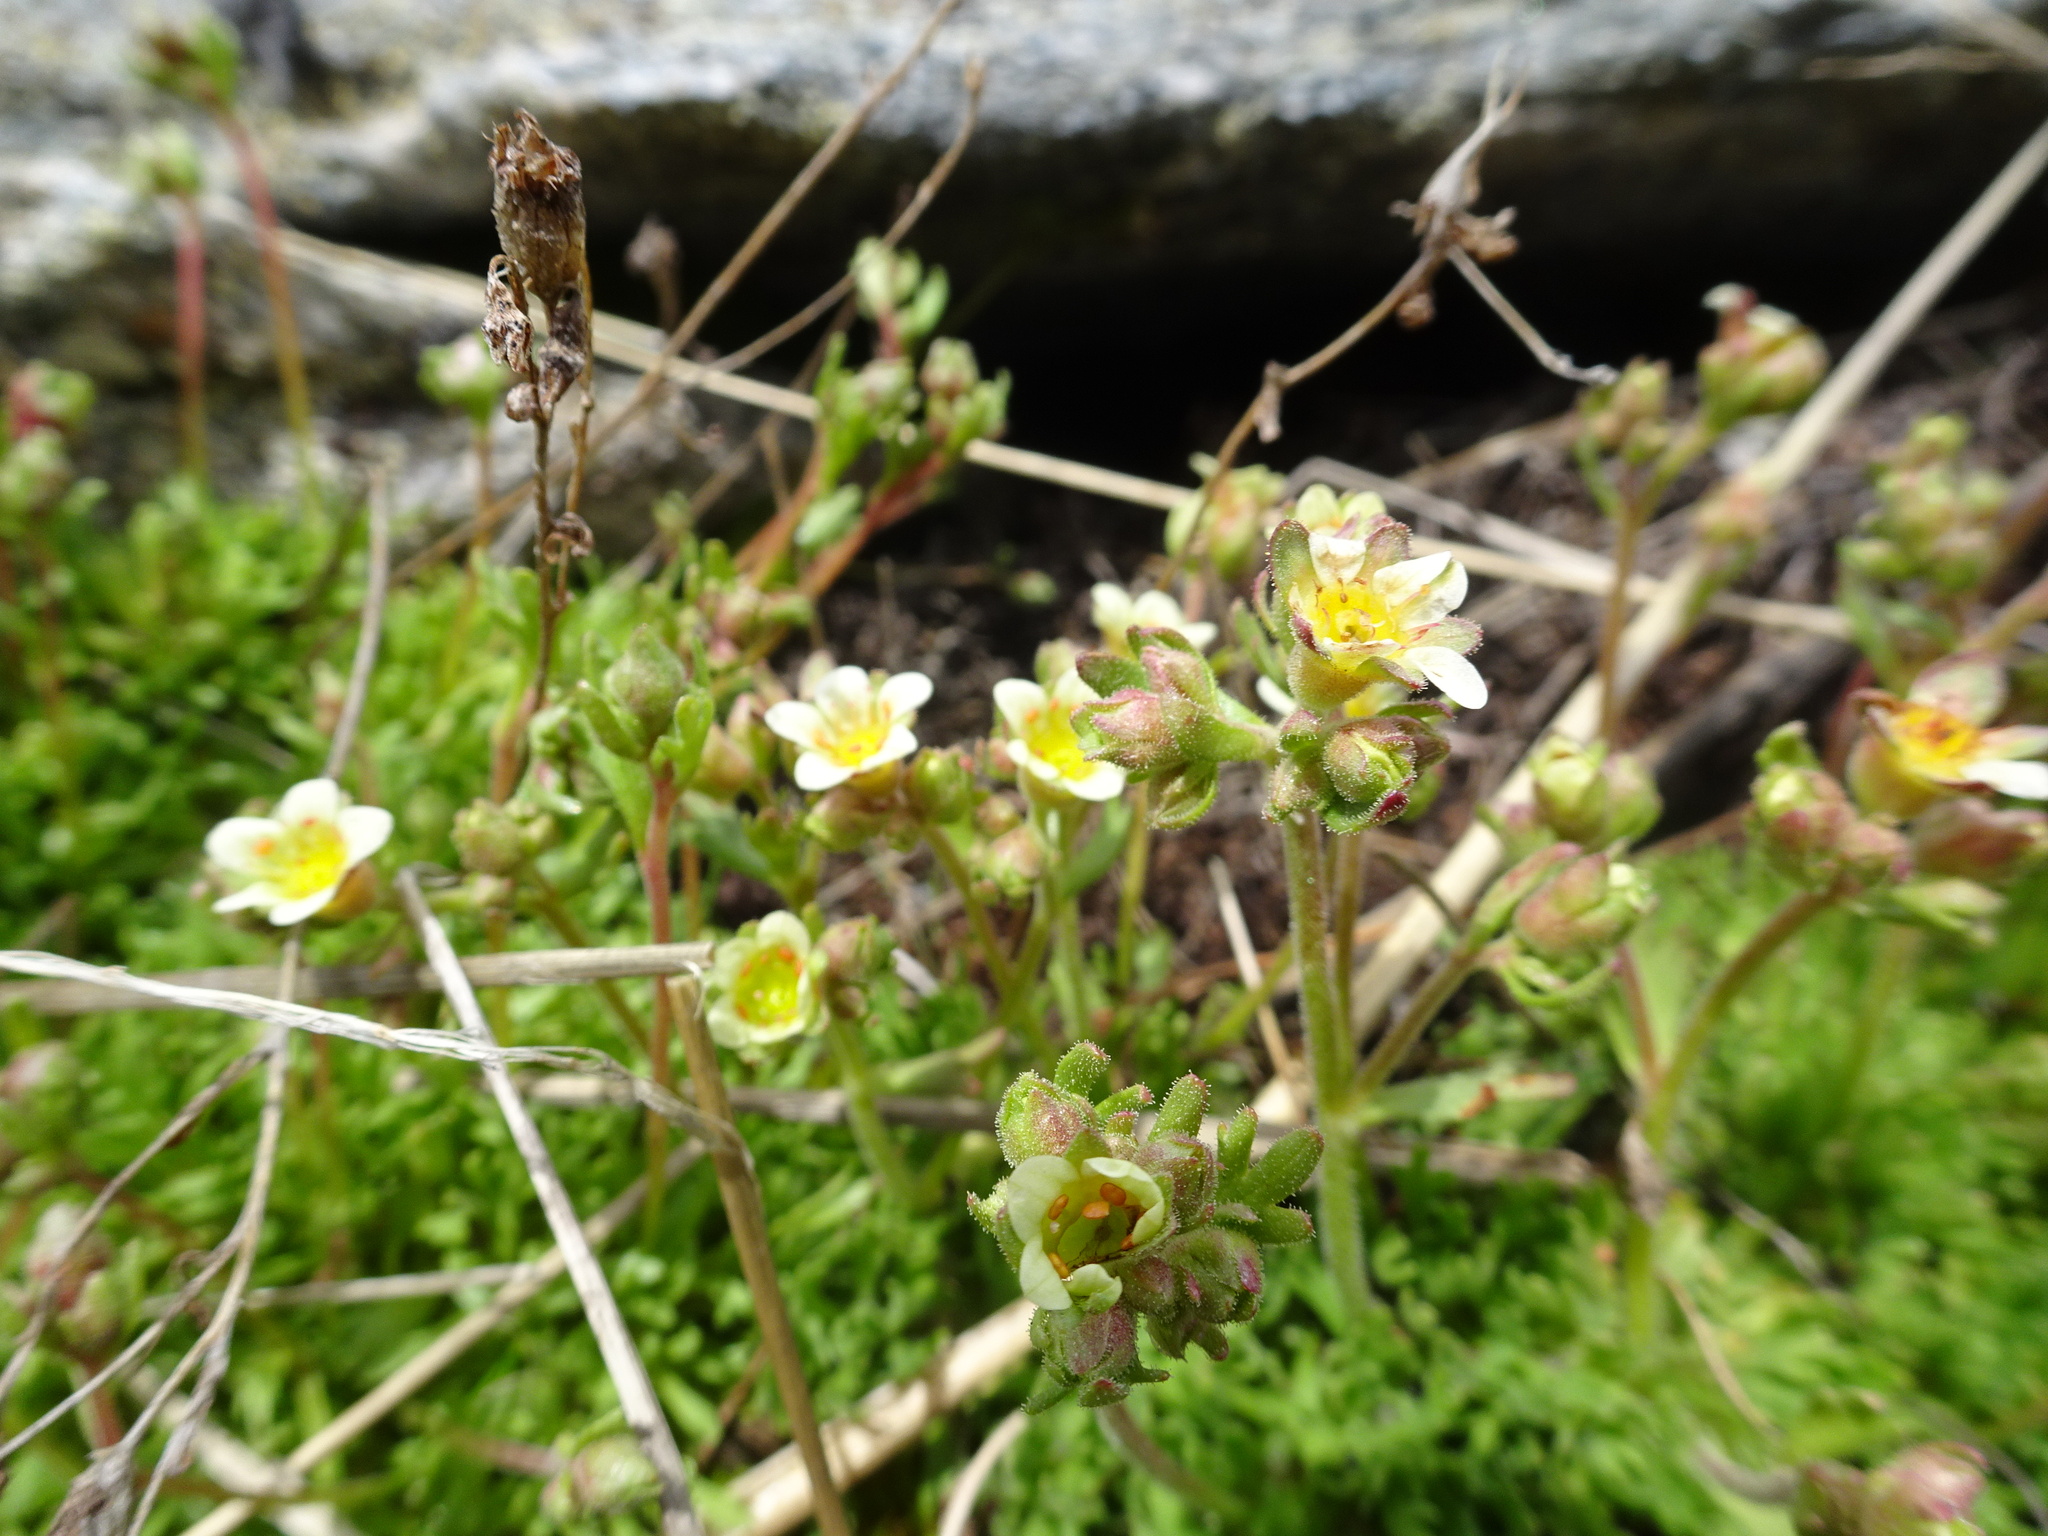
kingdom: Plantae
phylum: Tracheophyta
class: Magnoliopsida
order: Saxifragales
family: Saxifragaceae
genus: Saxifraga
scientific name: Saxifraga exarata
